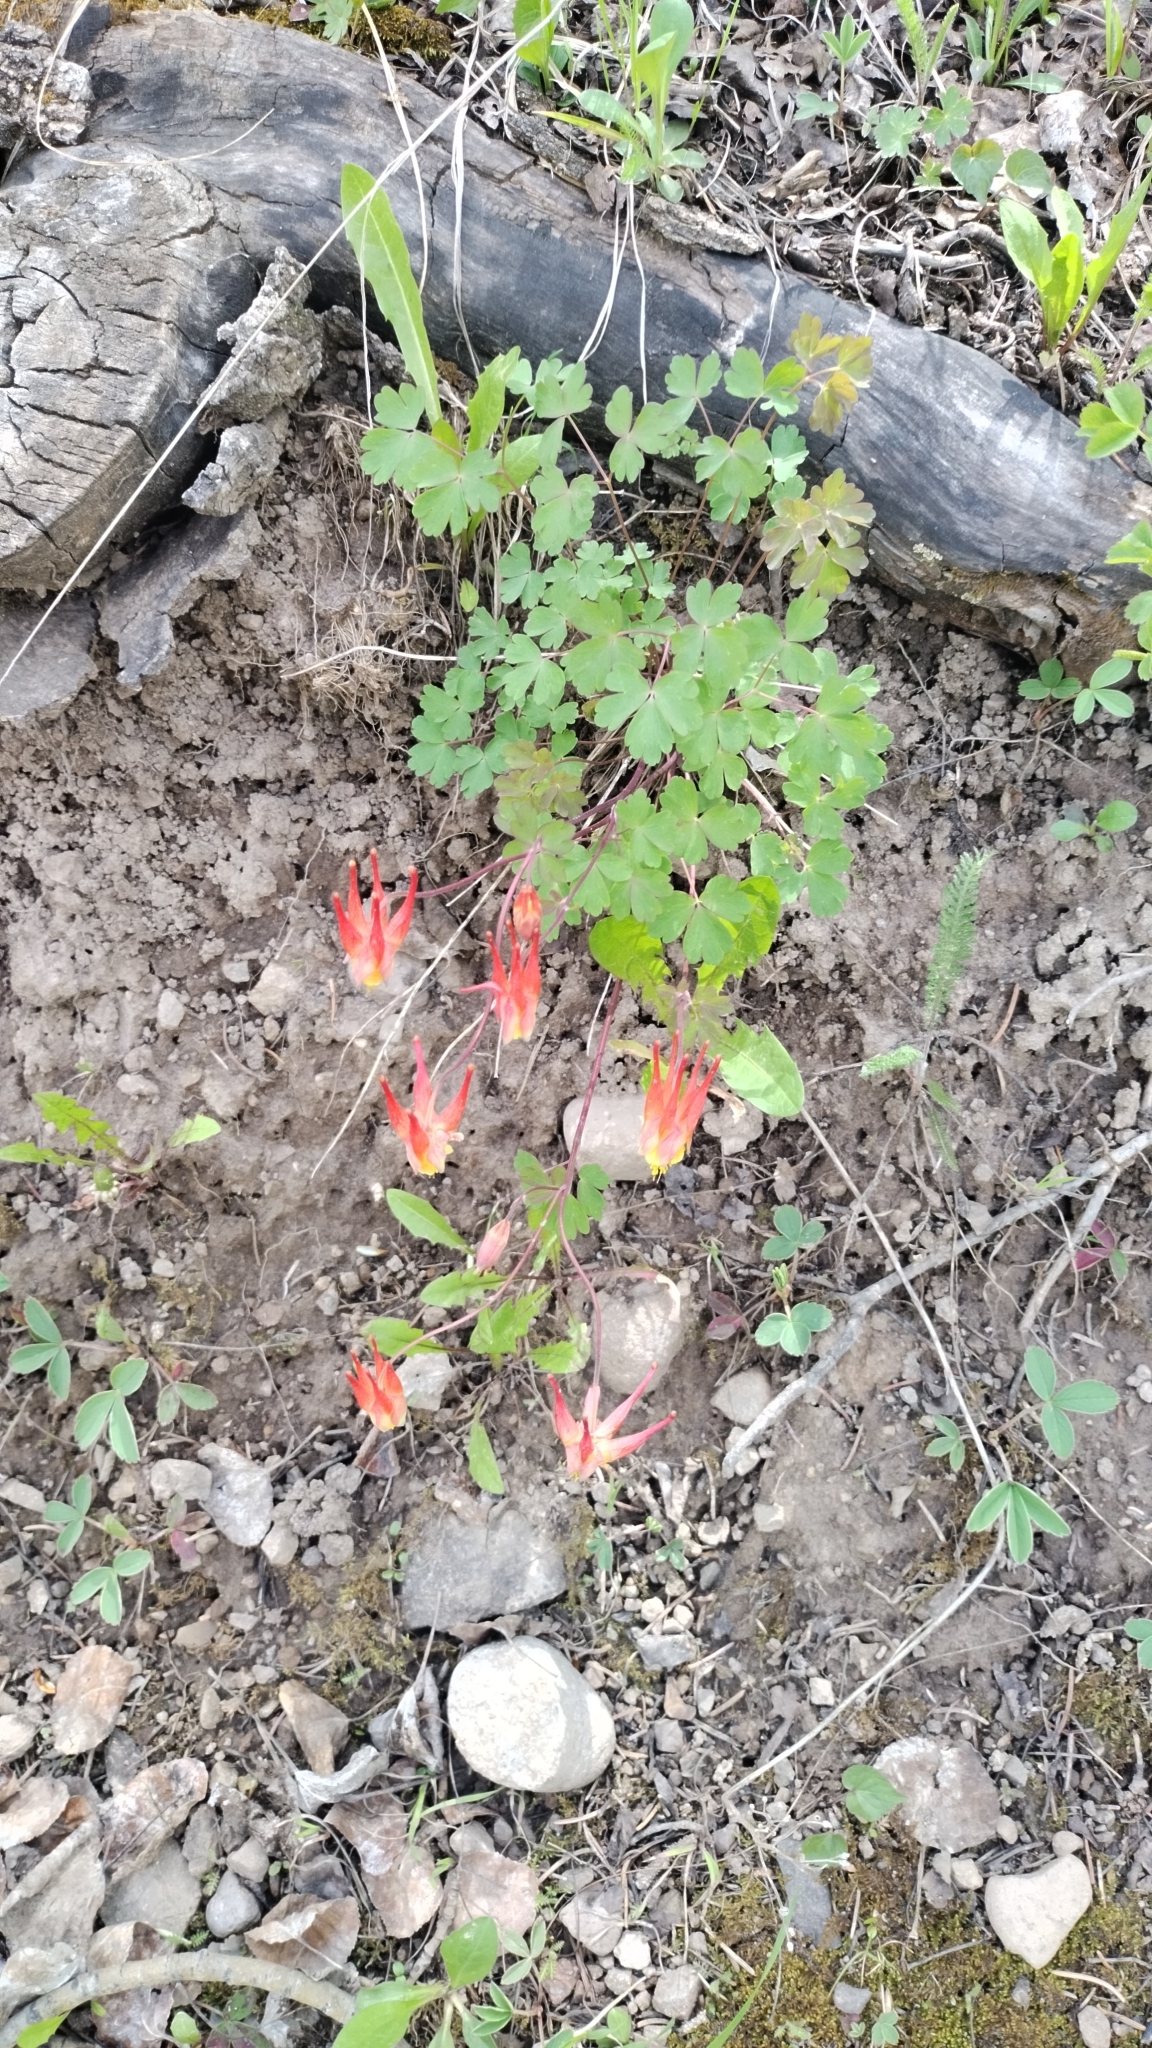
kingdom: Plantae
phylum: Tracheophyta
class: Magnoliopsida
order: Ranunculales
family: Ranunculaceae
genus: Aquilegia
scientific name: Aquilegia elegantula
